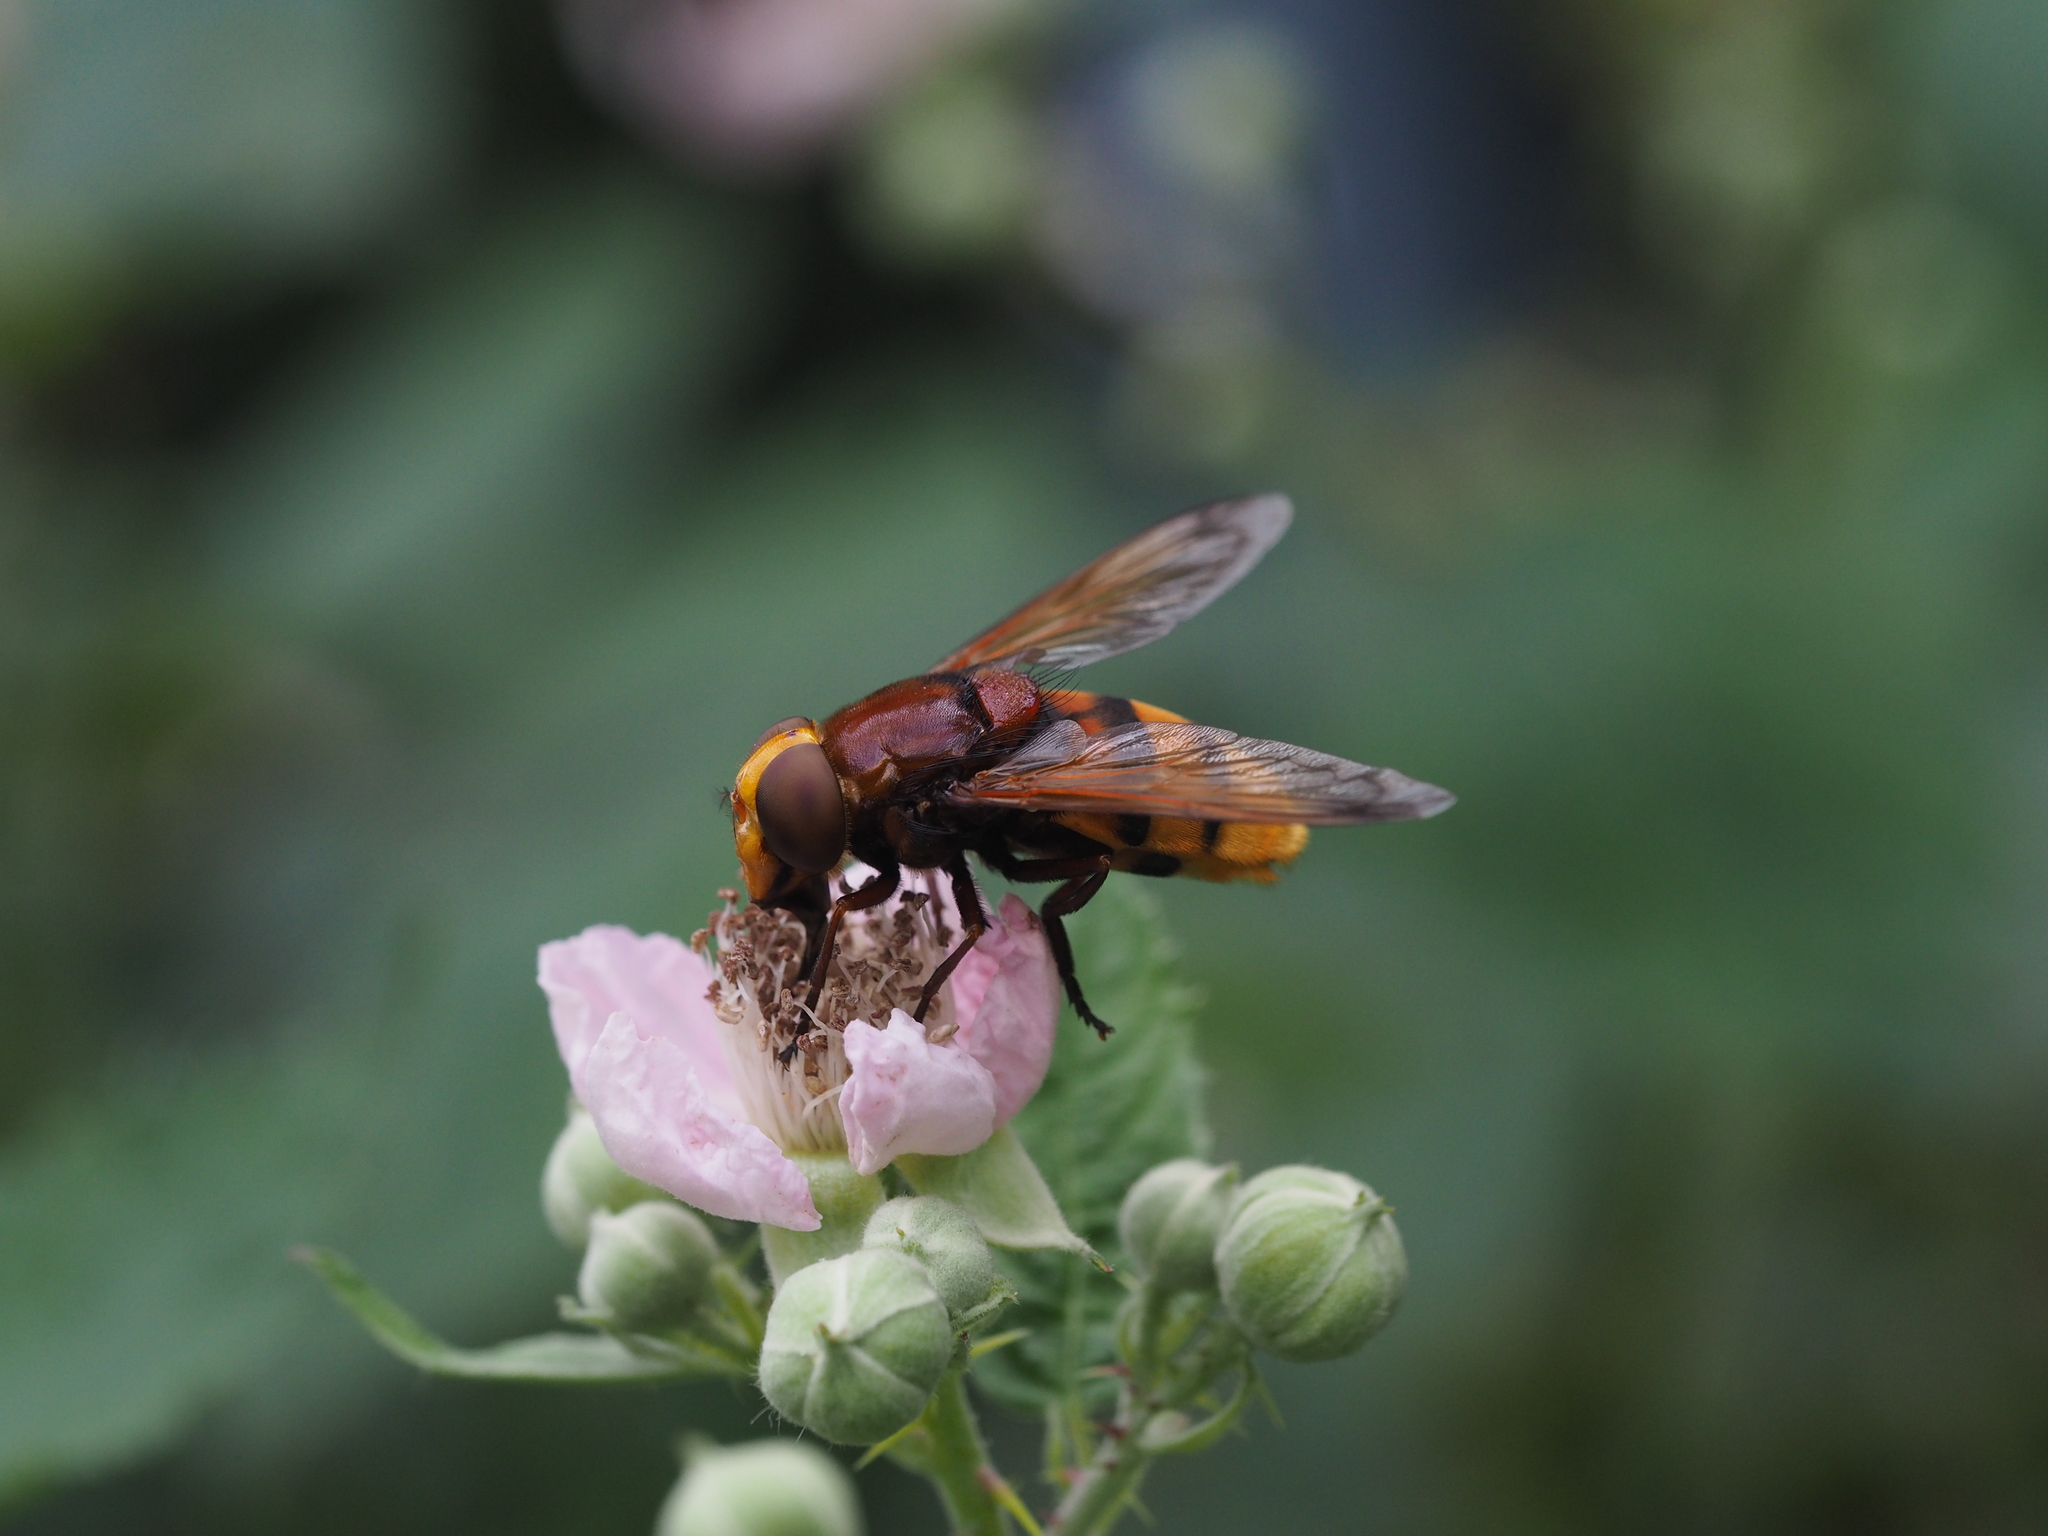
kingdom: Animalia
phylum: Arthropoda
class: Insecta
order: Diptera
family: Syrphidae
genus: Volucella
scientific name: Volucella zonaria
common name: Hornet hoverfly
